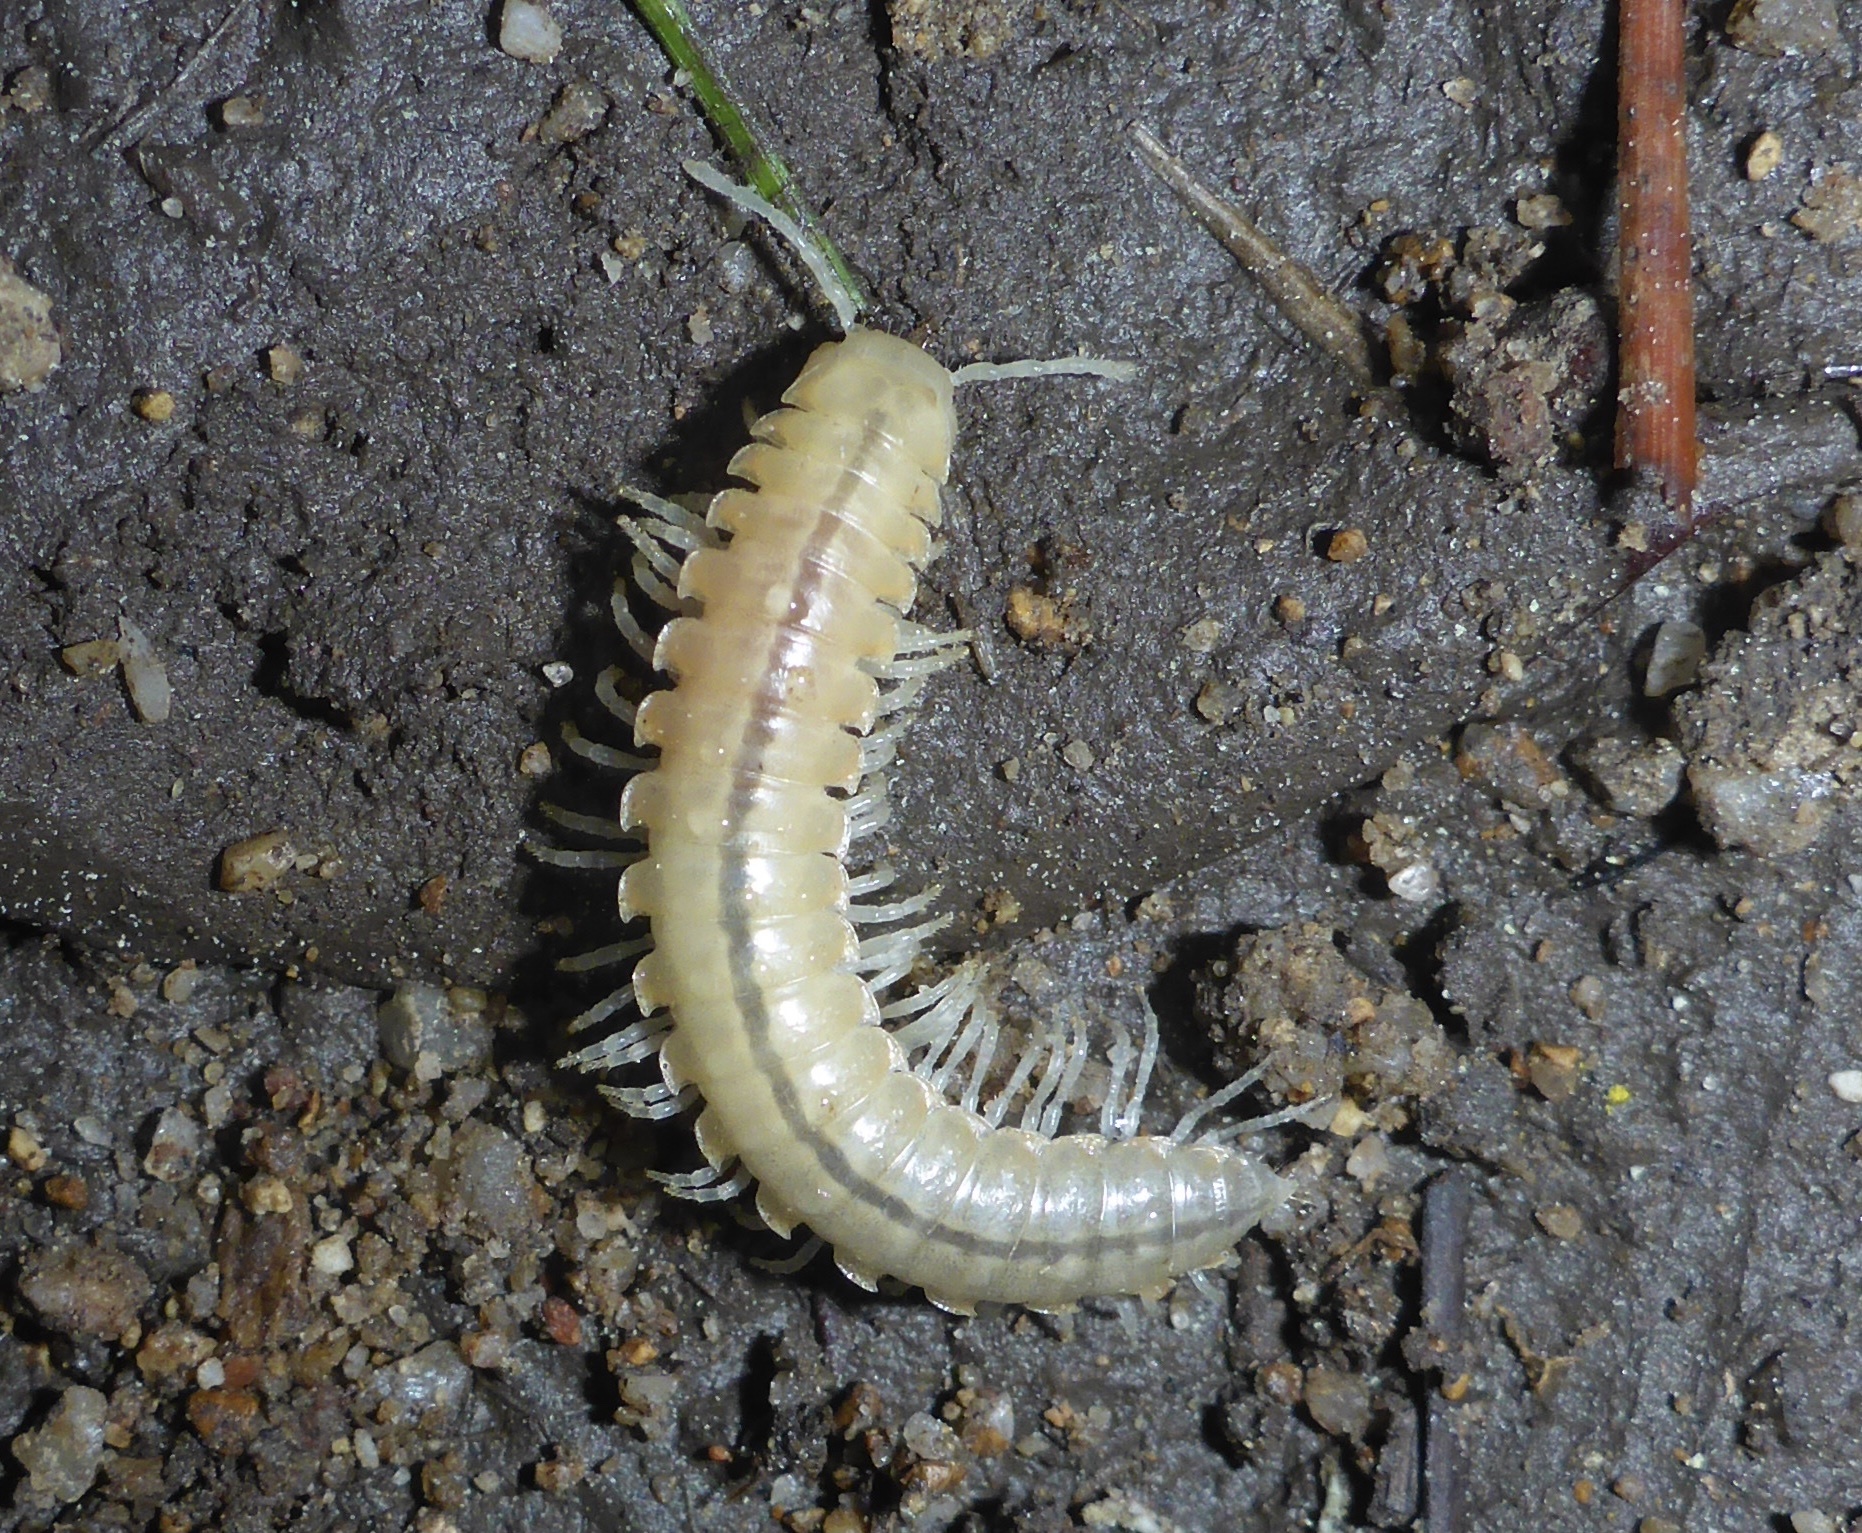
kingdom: Animalia
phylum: Arthropoda
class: Diplopoda
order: Polydesmida
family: Xystodesmidae
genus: Xystocheir
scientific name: Xystocheir dissecta
